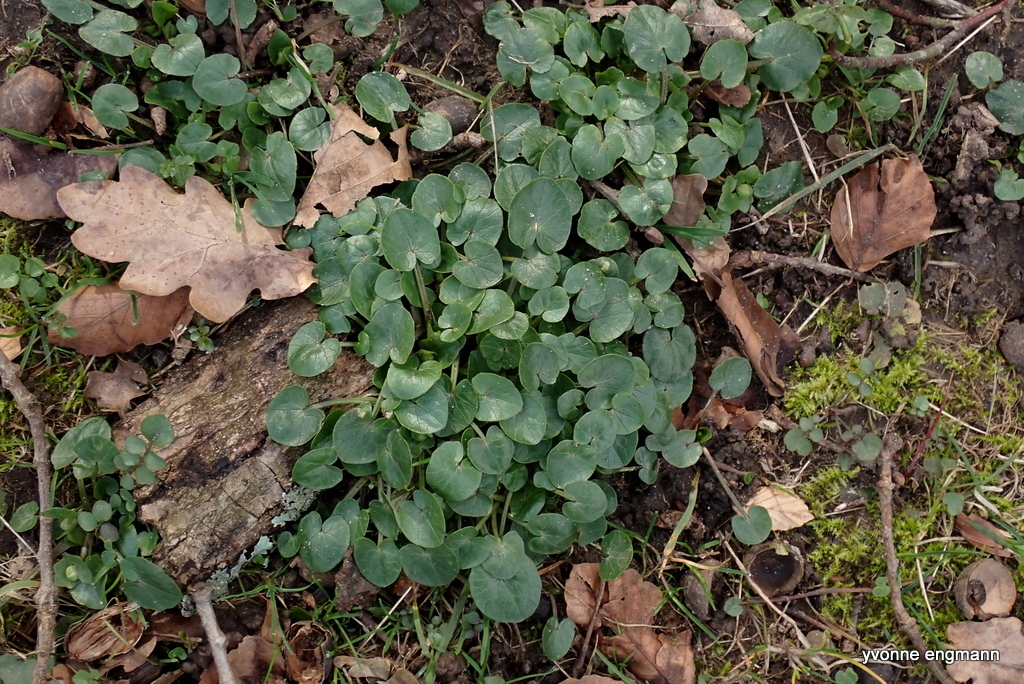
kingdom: Plantae
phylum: Tracheophyta
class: Magnoliopsida
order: Ranunculales
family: Ranunculaceae
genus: Ficaria
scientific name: Ficaria verna
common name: Lesser celandine
